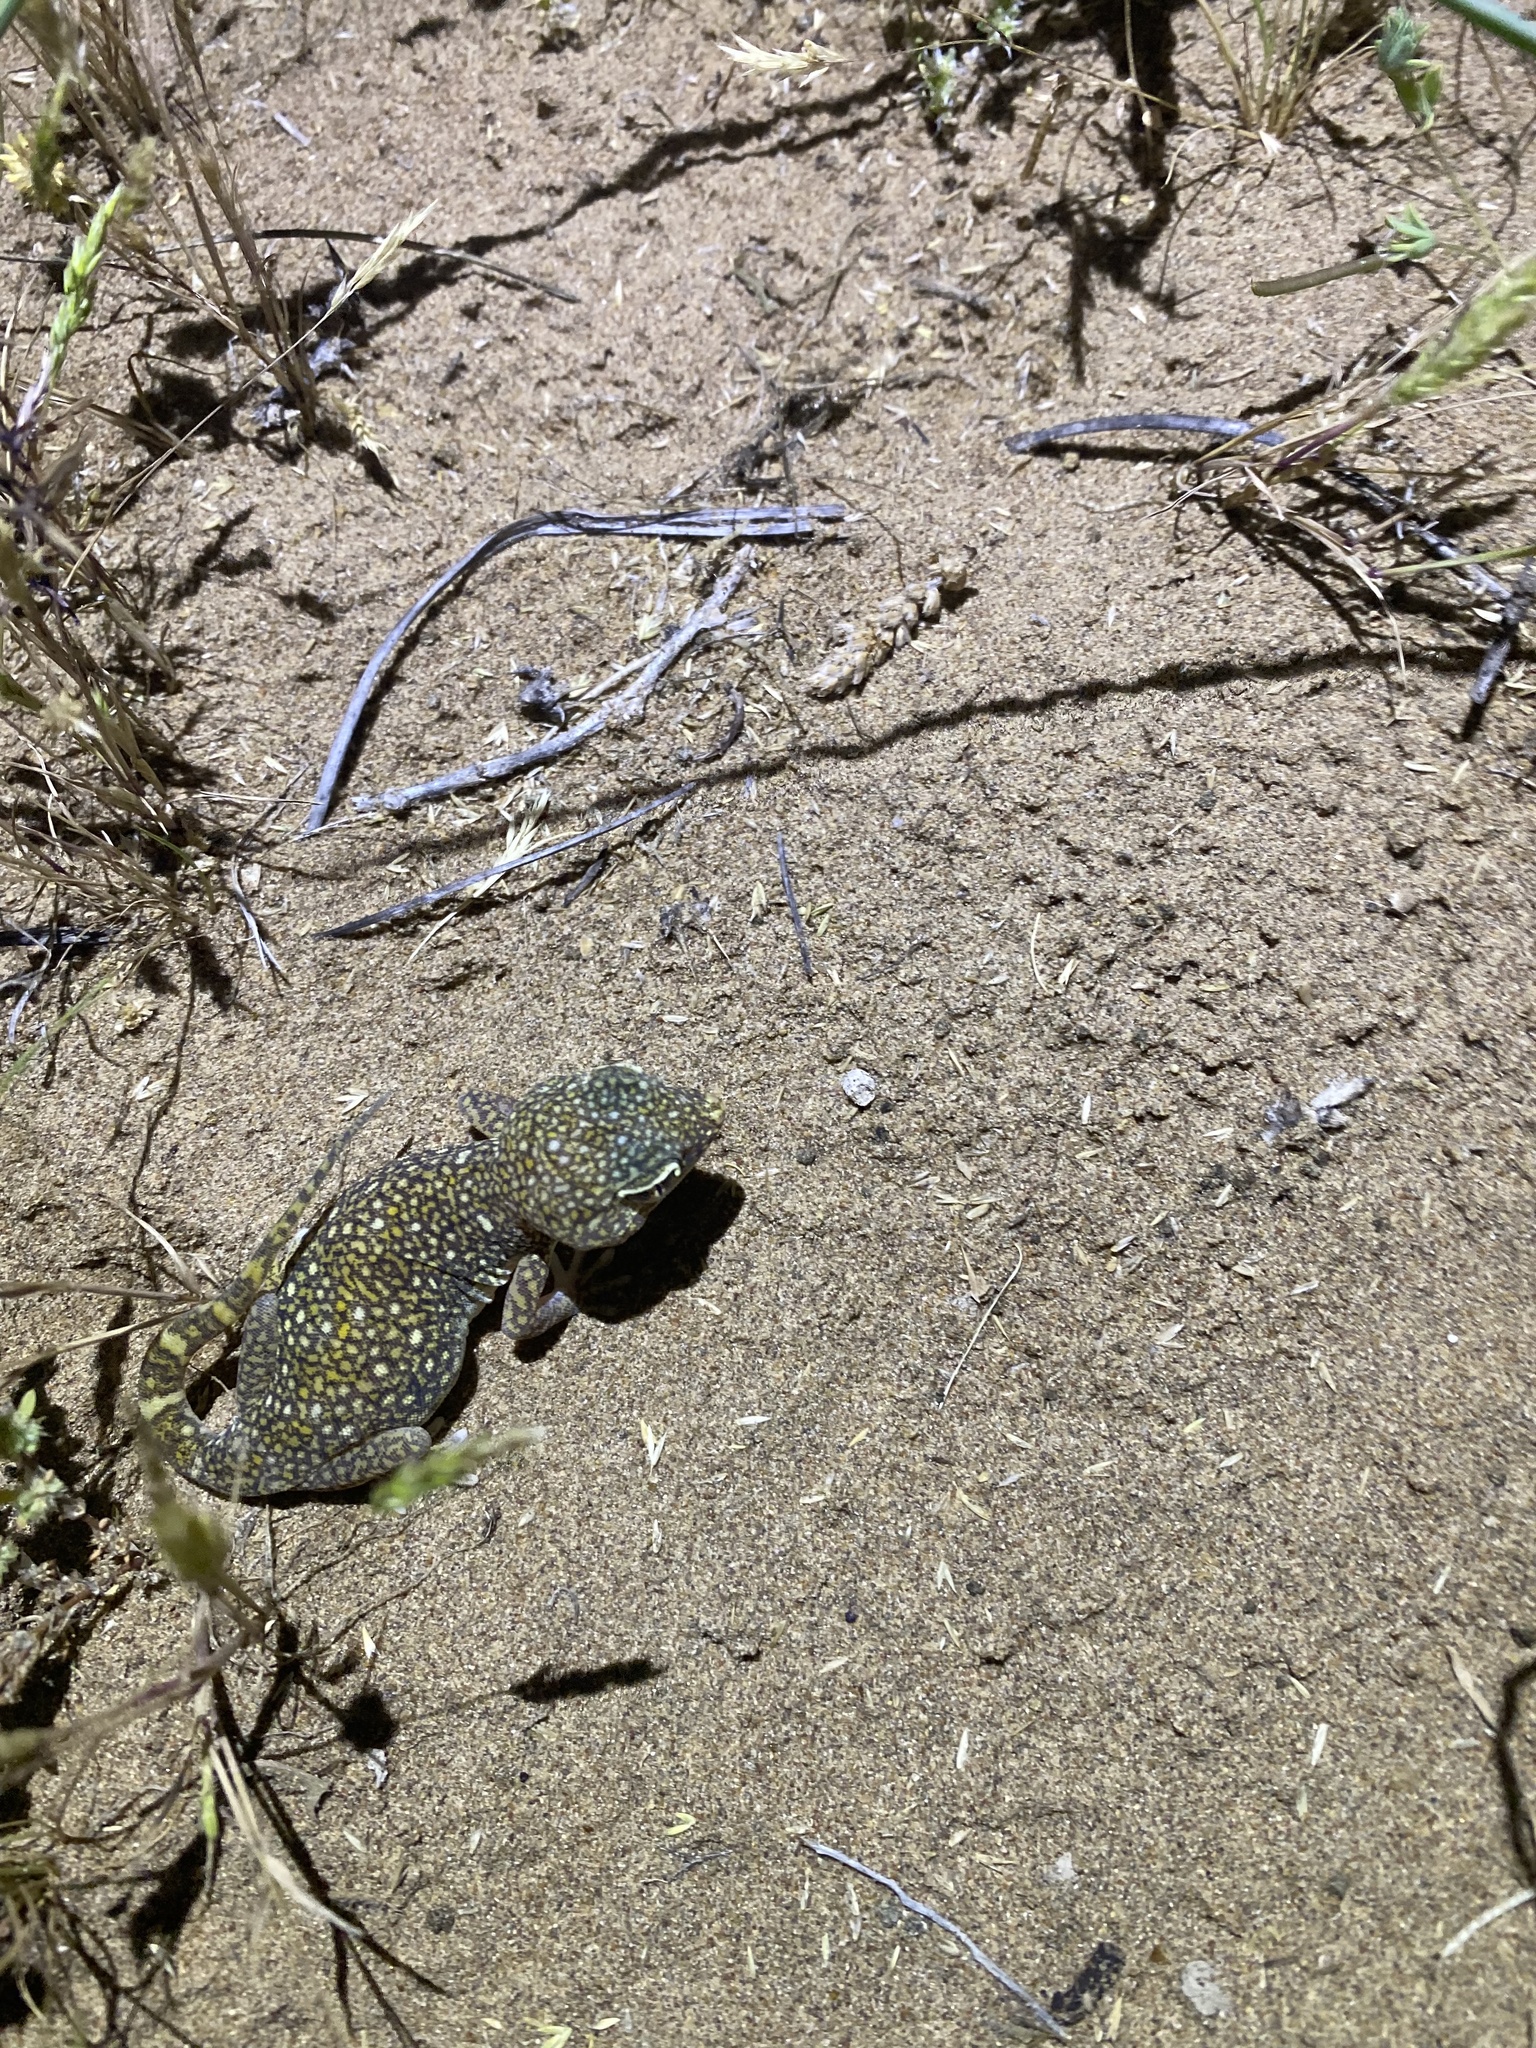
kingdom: Animalia
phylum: Chordata
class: Squamata
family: Gekkonidae
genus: Stenodactylus
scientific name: Stenodactylus doriae
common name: Dune sand gecko
